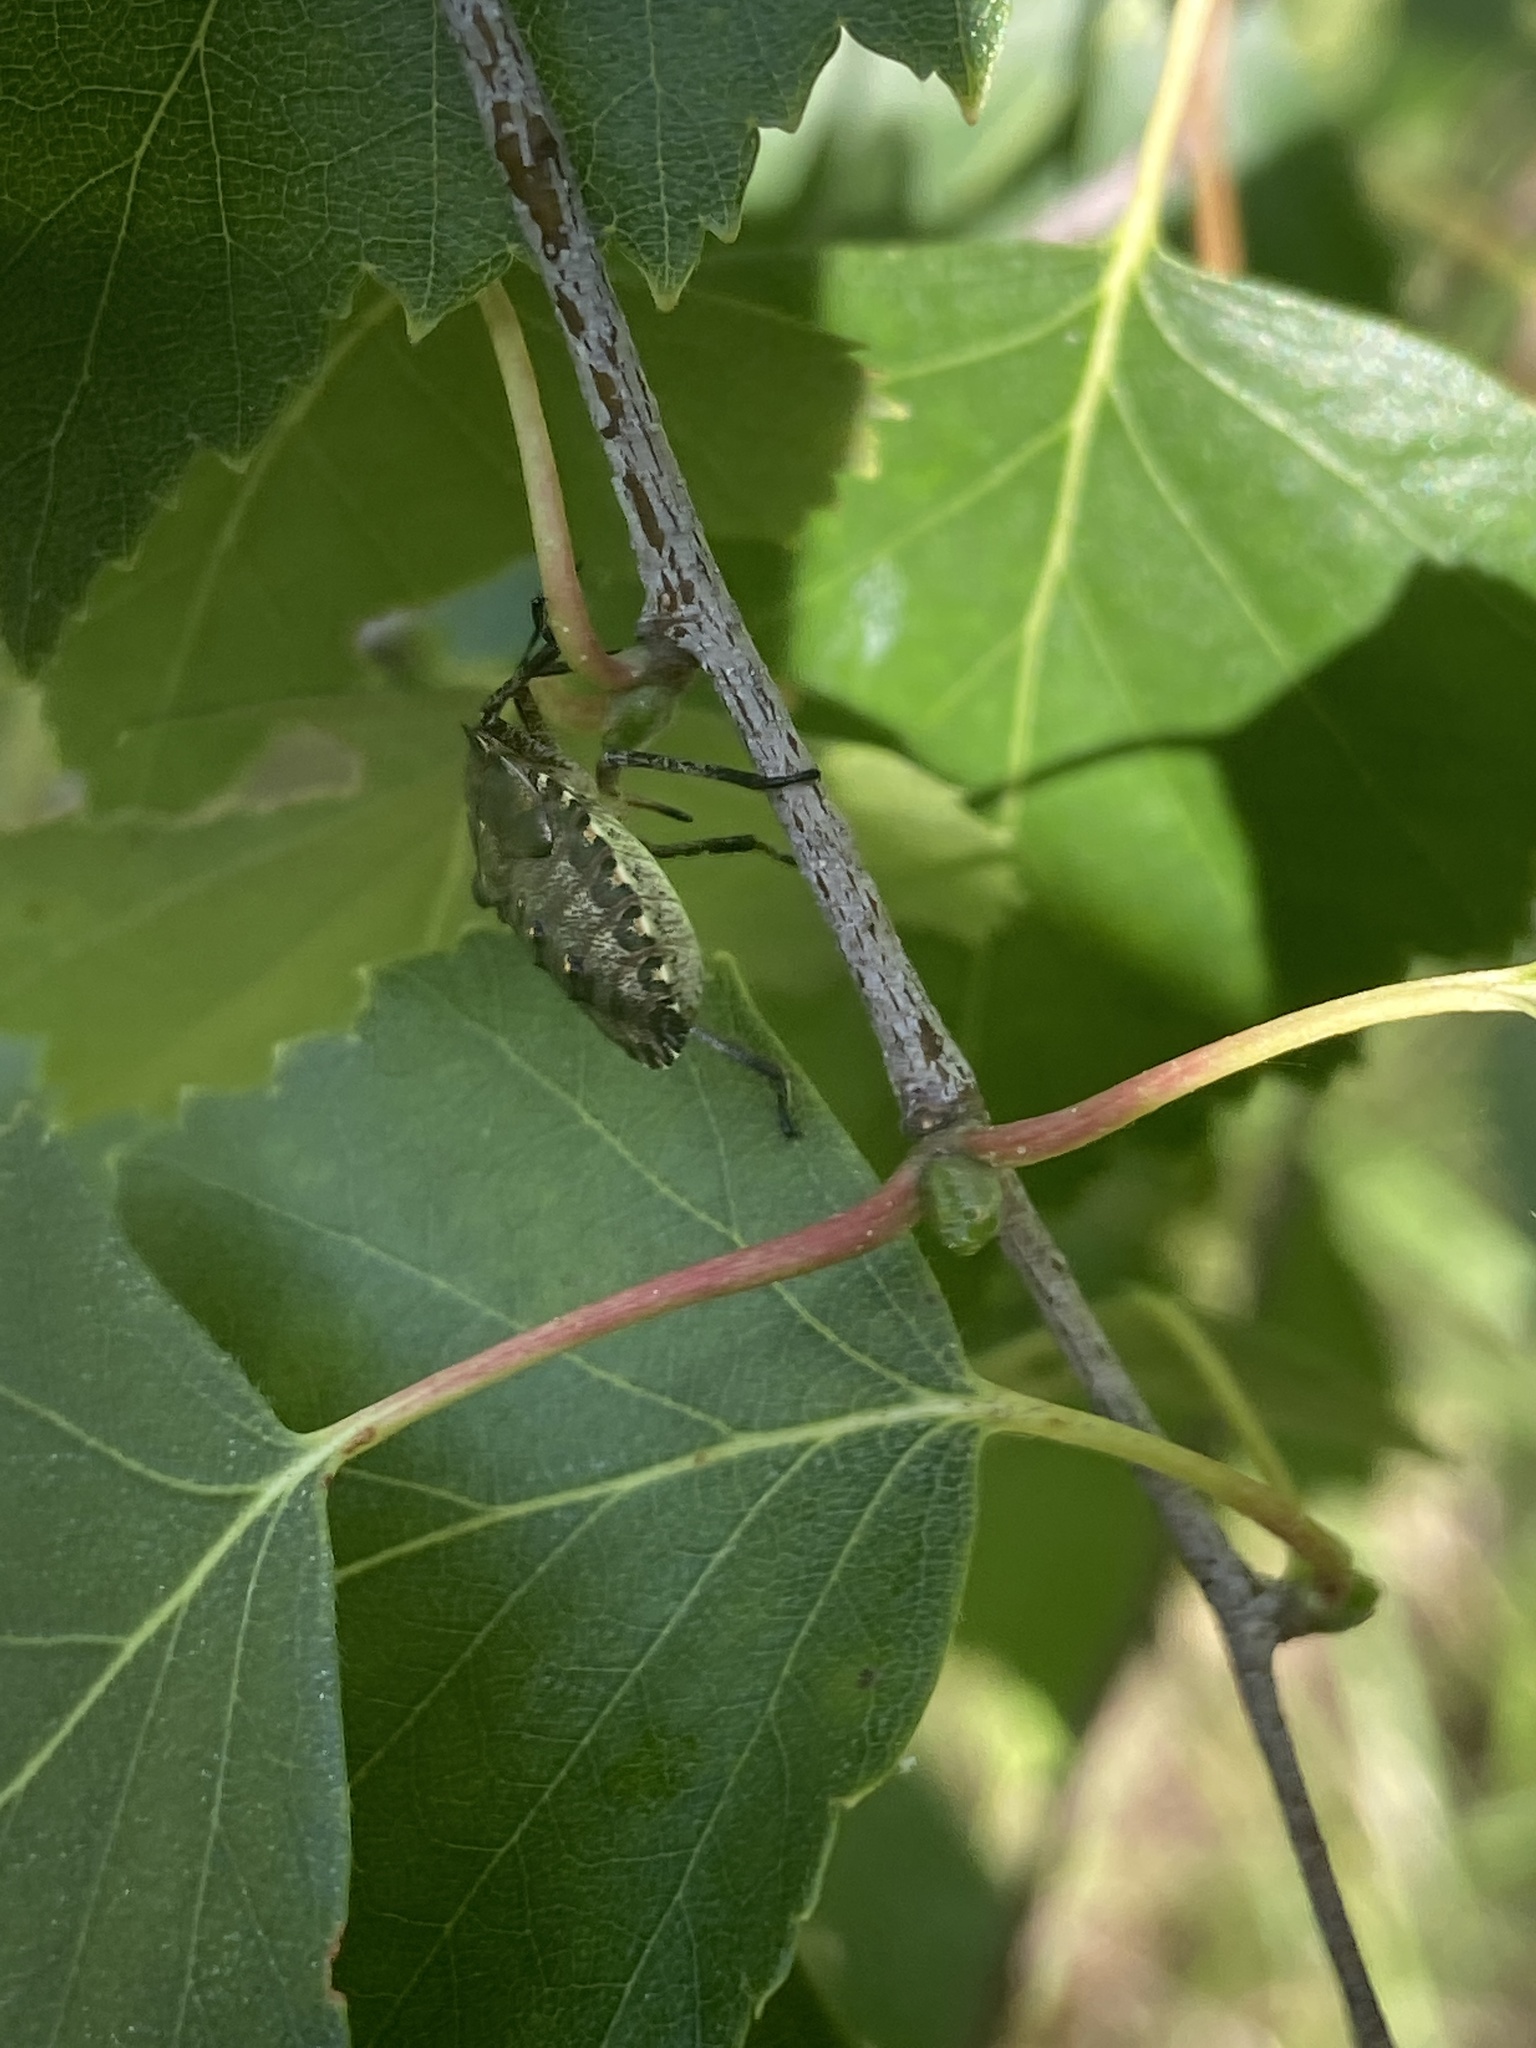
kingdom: Animalia
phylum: Arthropoda
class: Insecta
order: Hemiptera
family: Pentatomidae
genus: Pentatoma
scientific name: Pentatoma rufipes
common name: Forest bug
